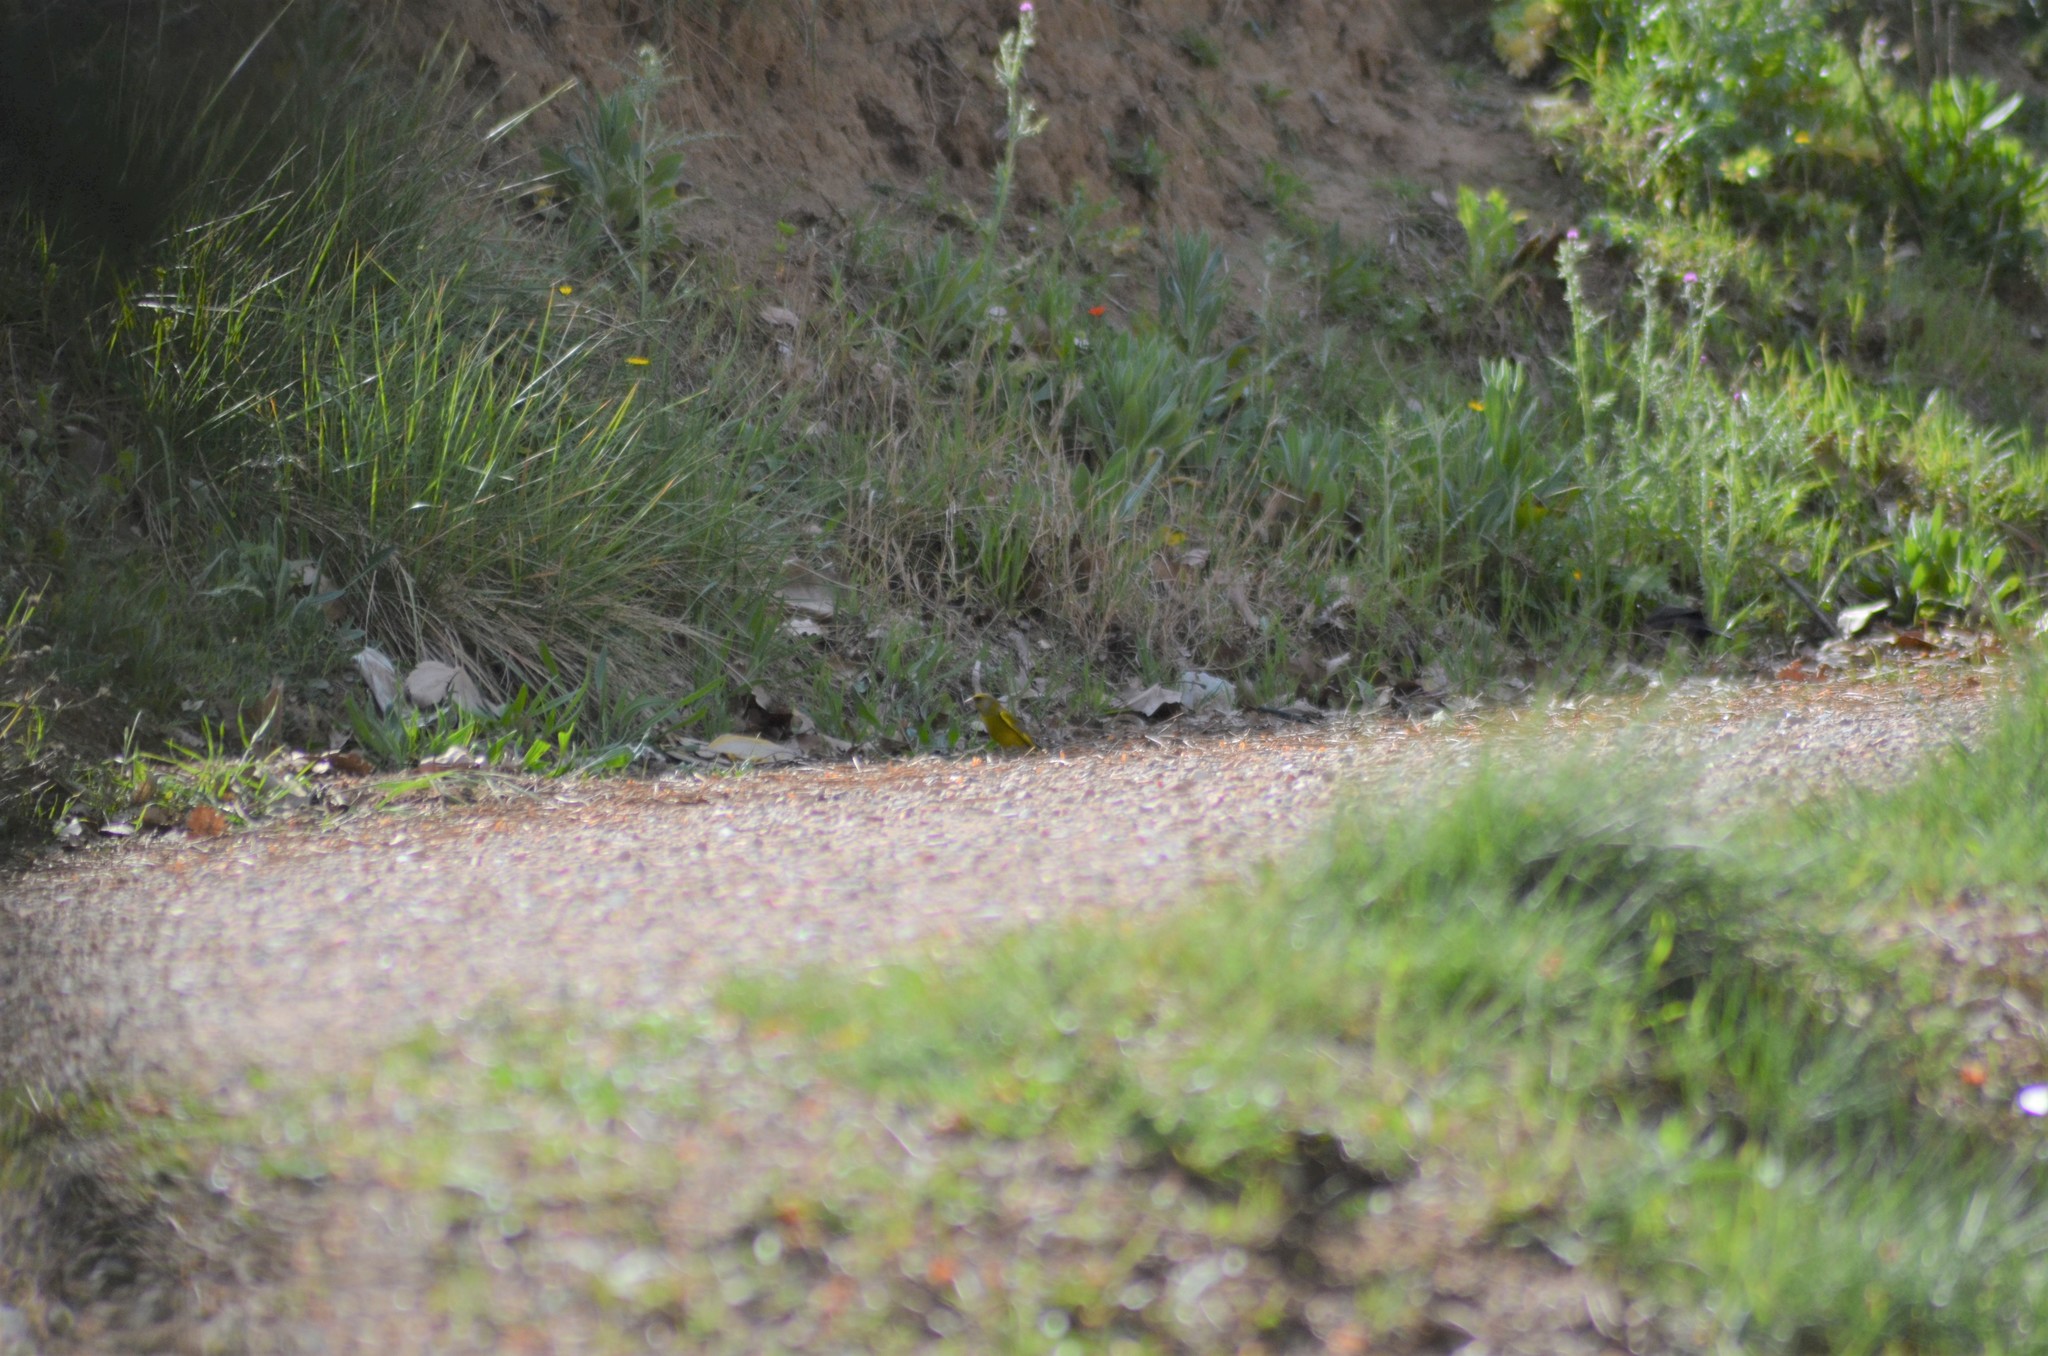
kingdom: Plantae
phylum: Tracheophyta
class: Liliopsida
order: Poales
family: Poaceae
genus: Chloris
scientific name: Chloris chloris
